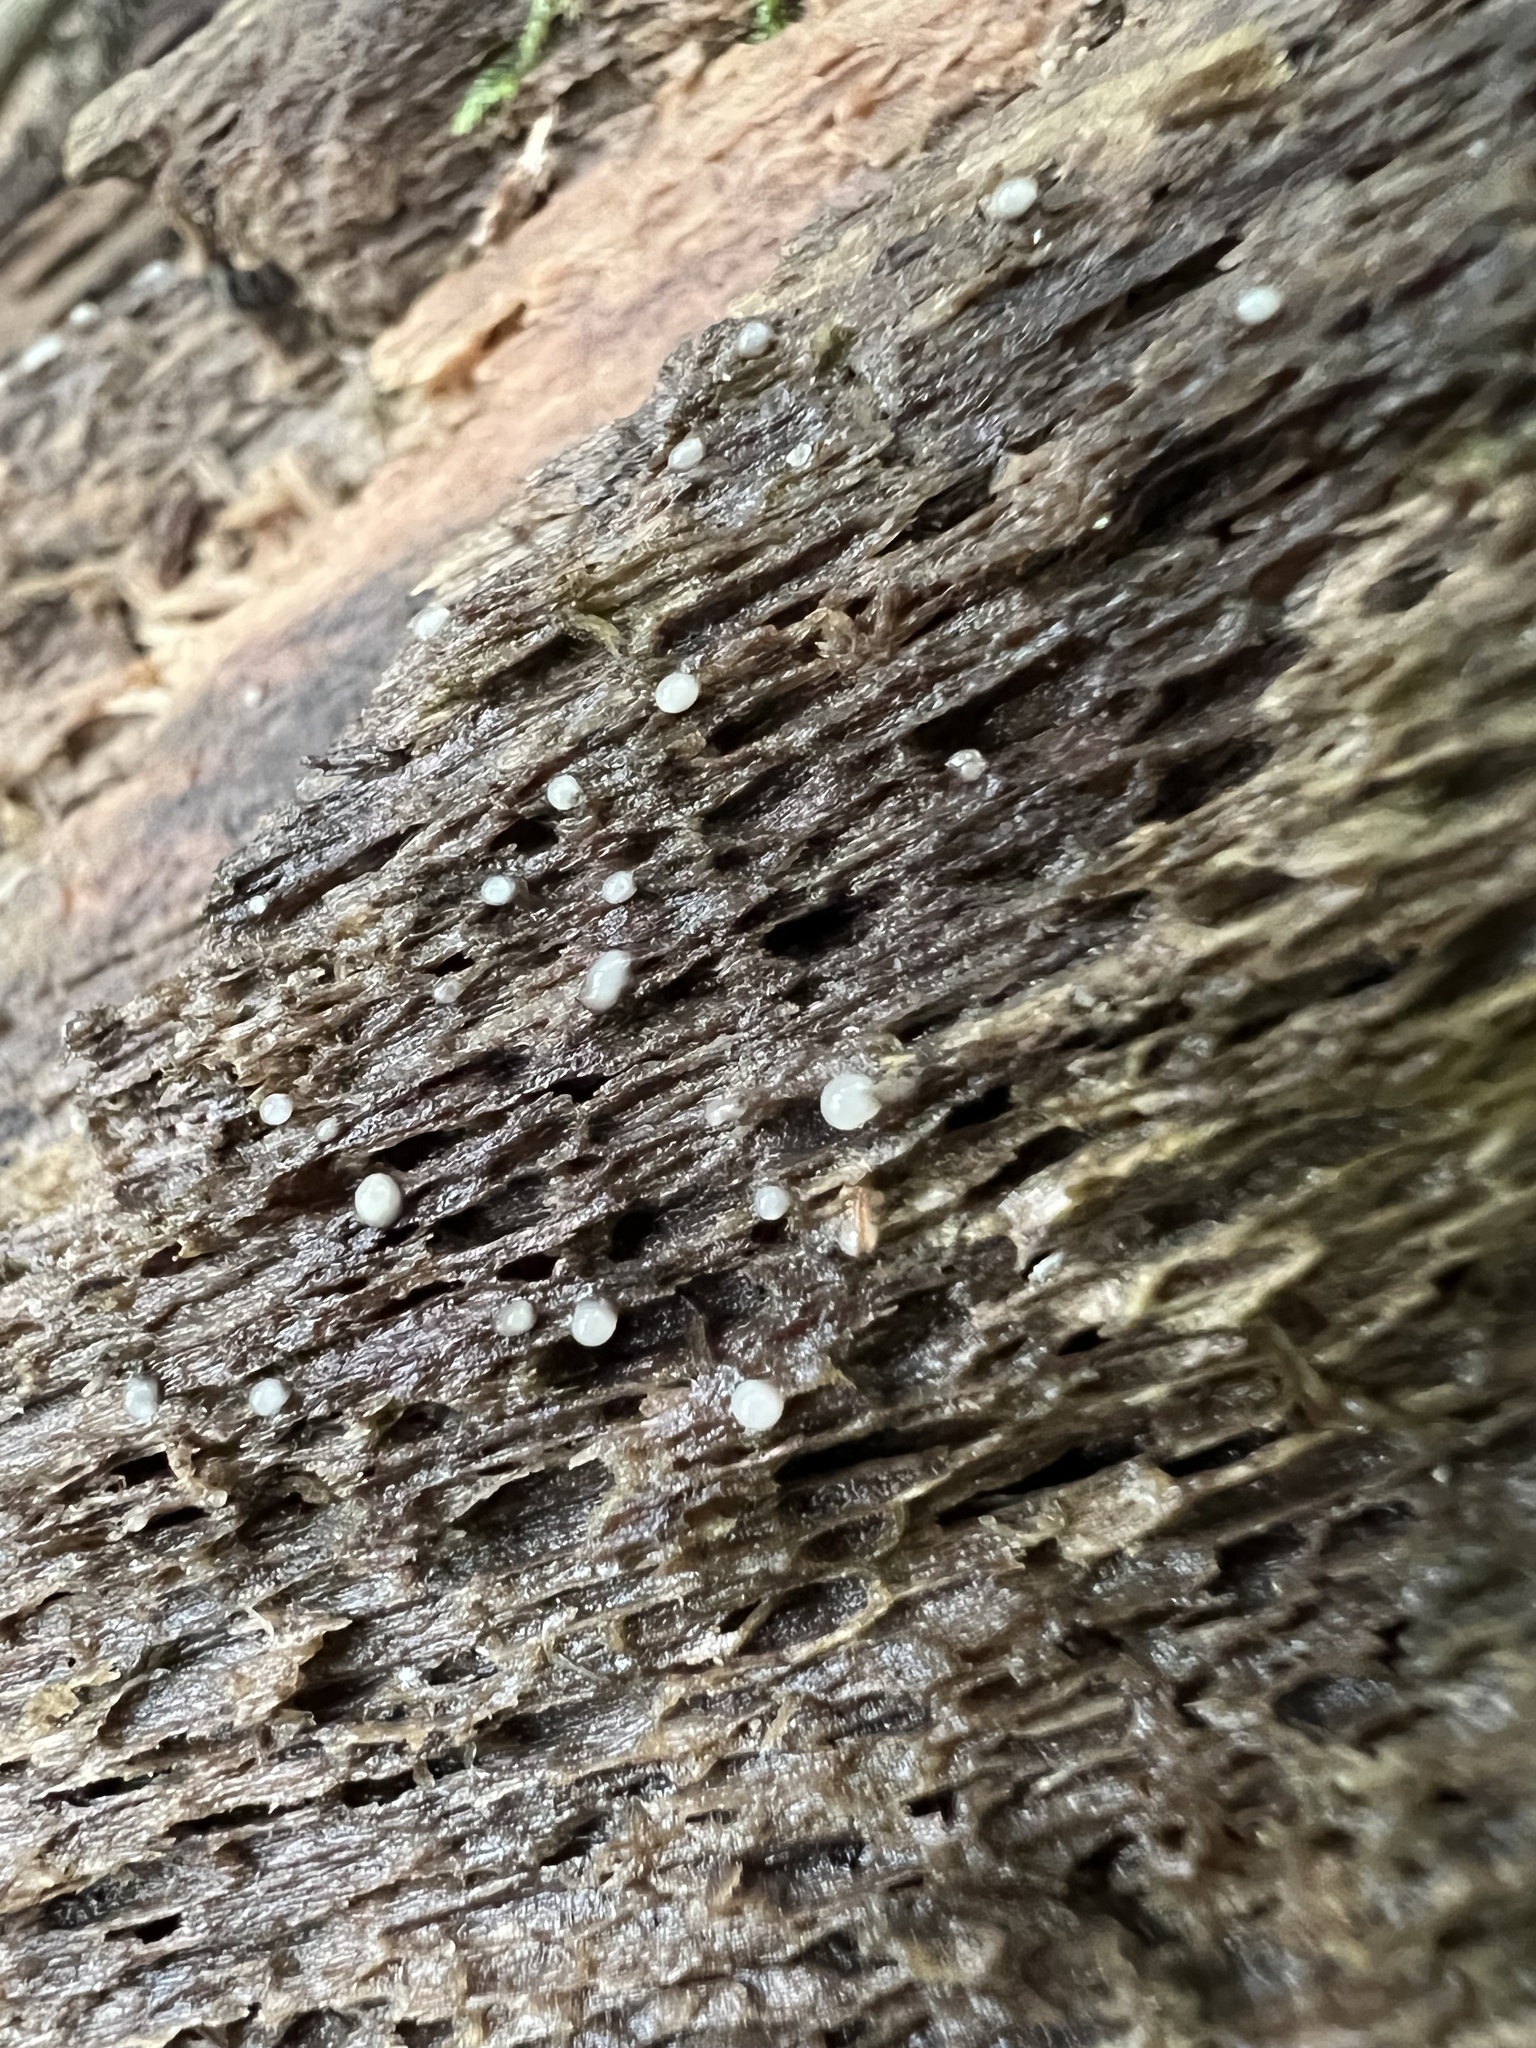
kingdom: Fungi
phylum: Basidiomycota
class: Atractiellomycetes
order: Atractiellales
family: Phleogenaceae
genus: Helicogloea
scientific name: Helicogloea compressa
